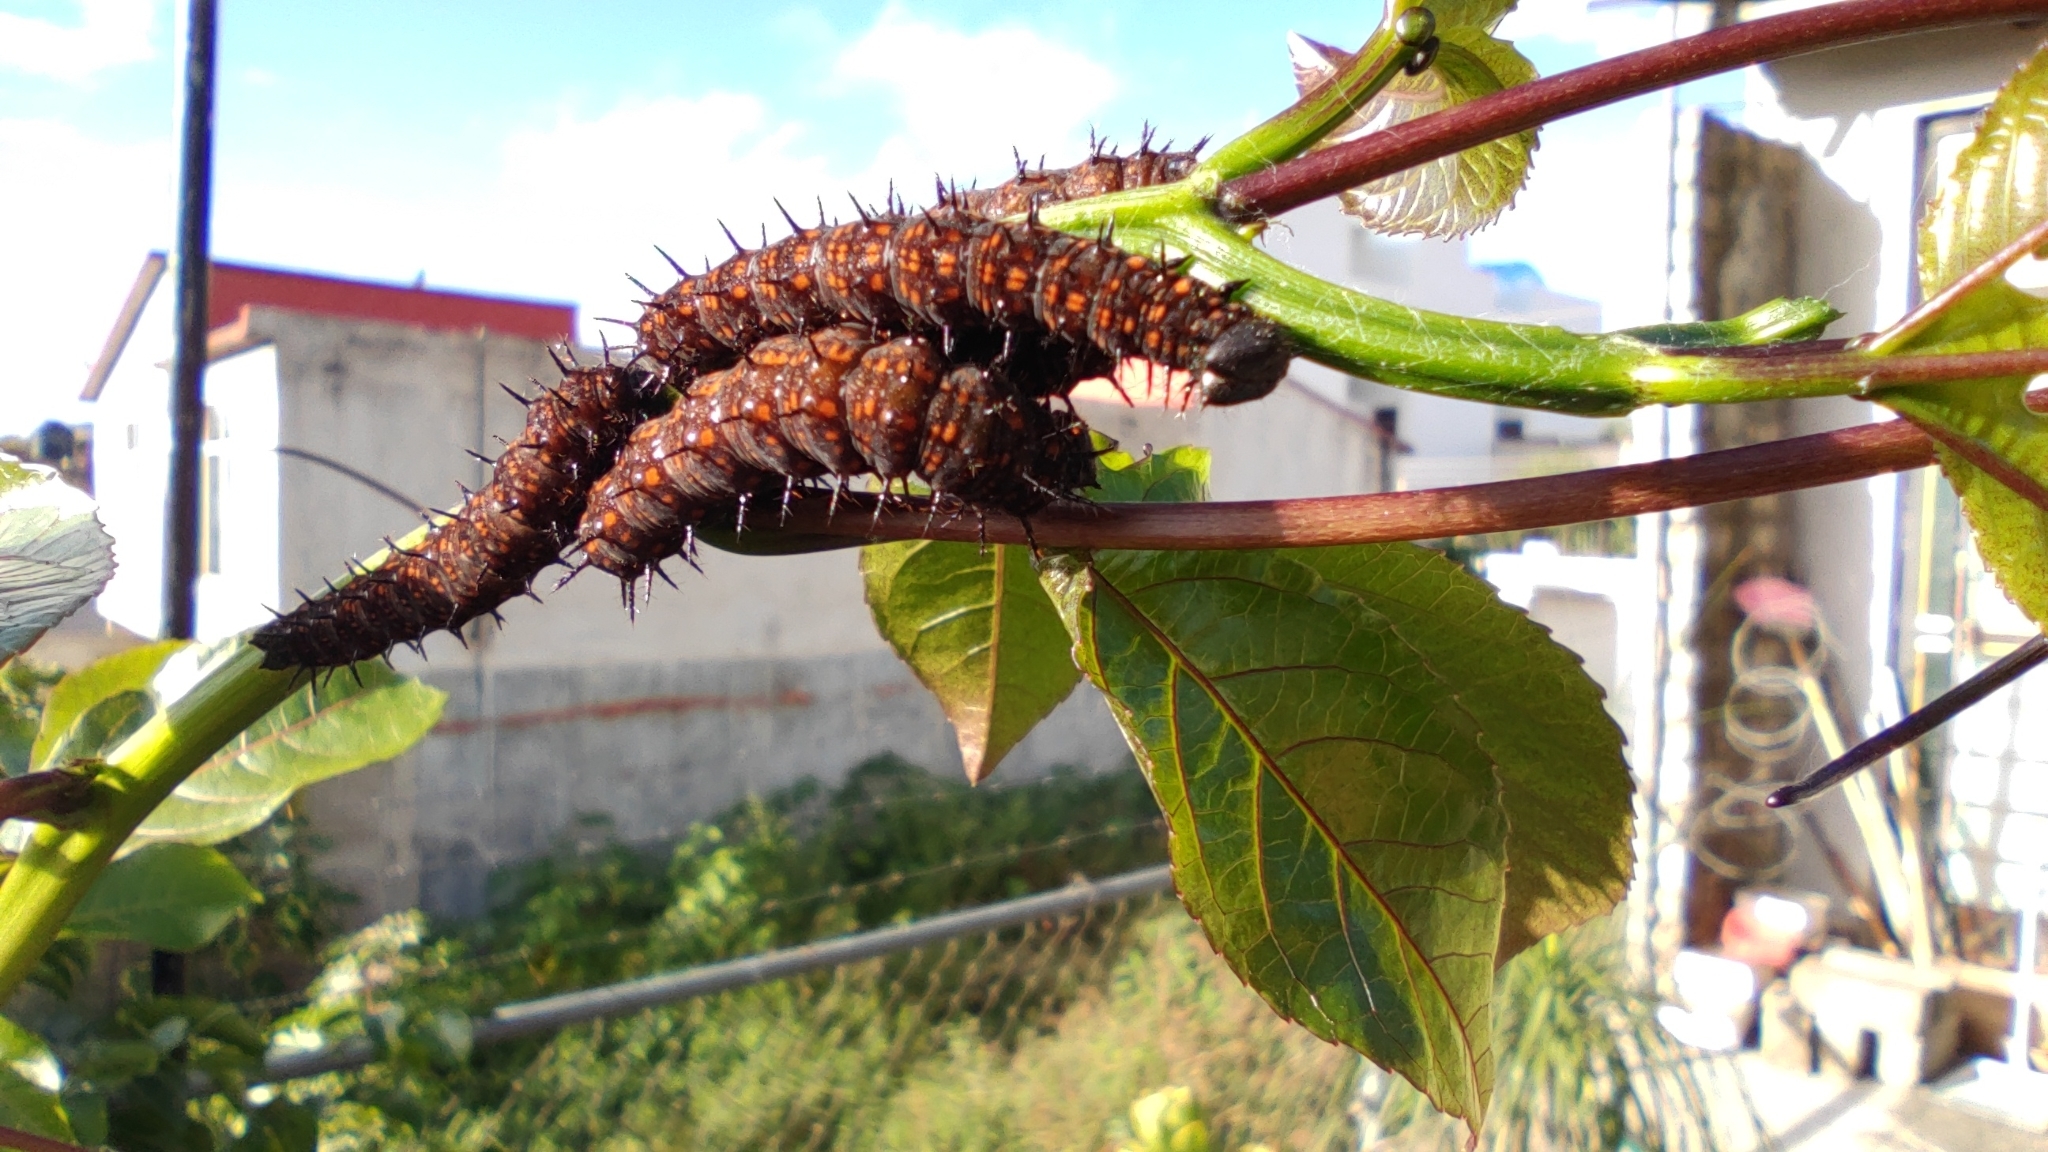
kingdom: Animalia
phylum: Arthropoda
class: Insecta
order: Lepidoptera
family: Nymphalidae
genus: Dione
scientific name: Dione juno
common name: Juno silverspot
